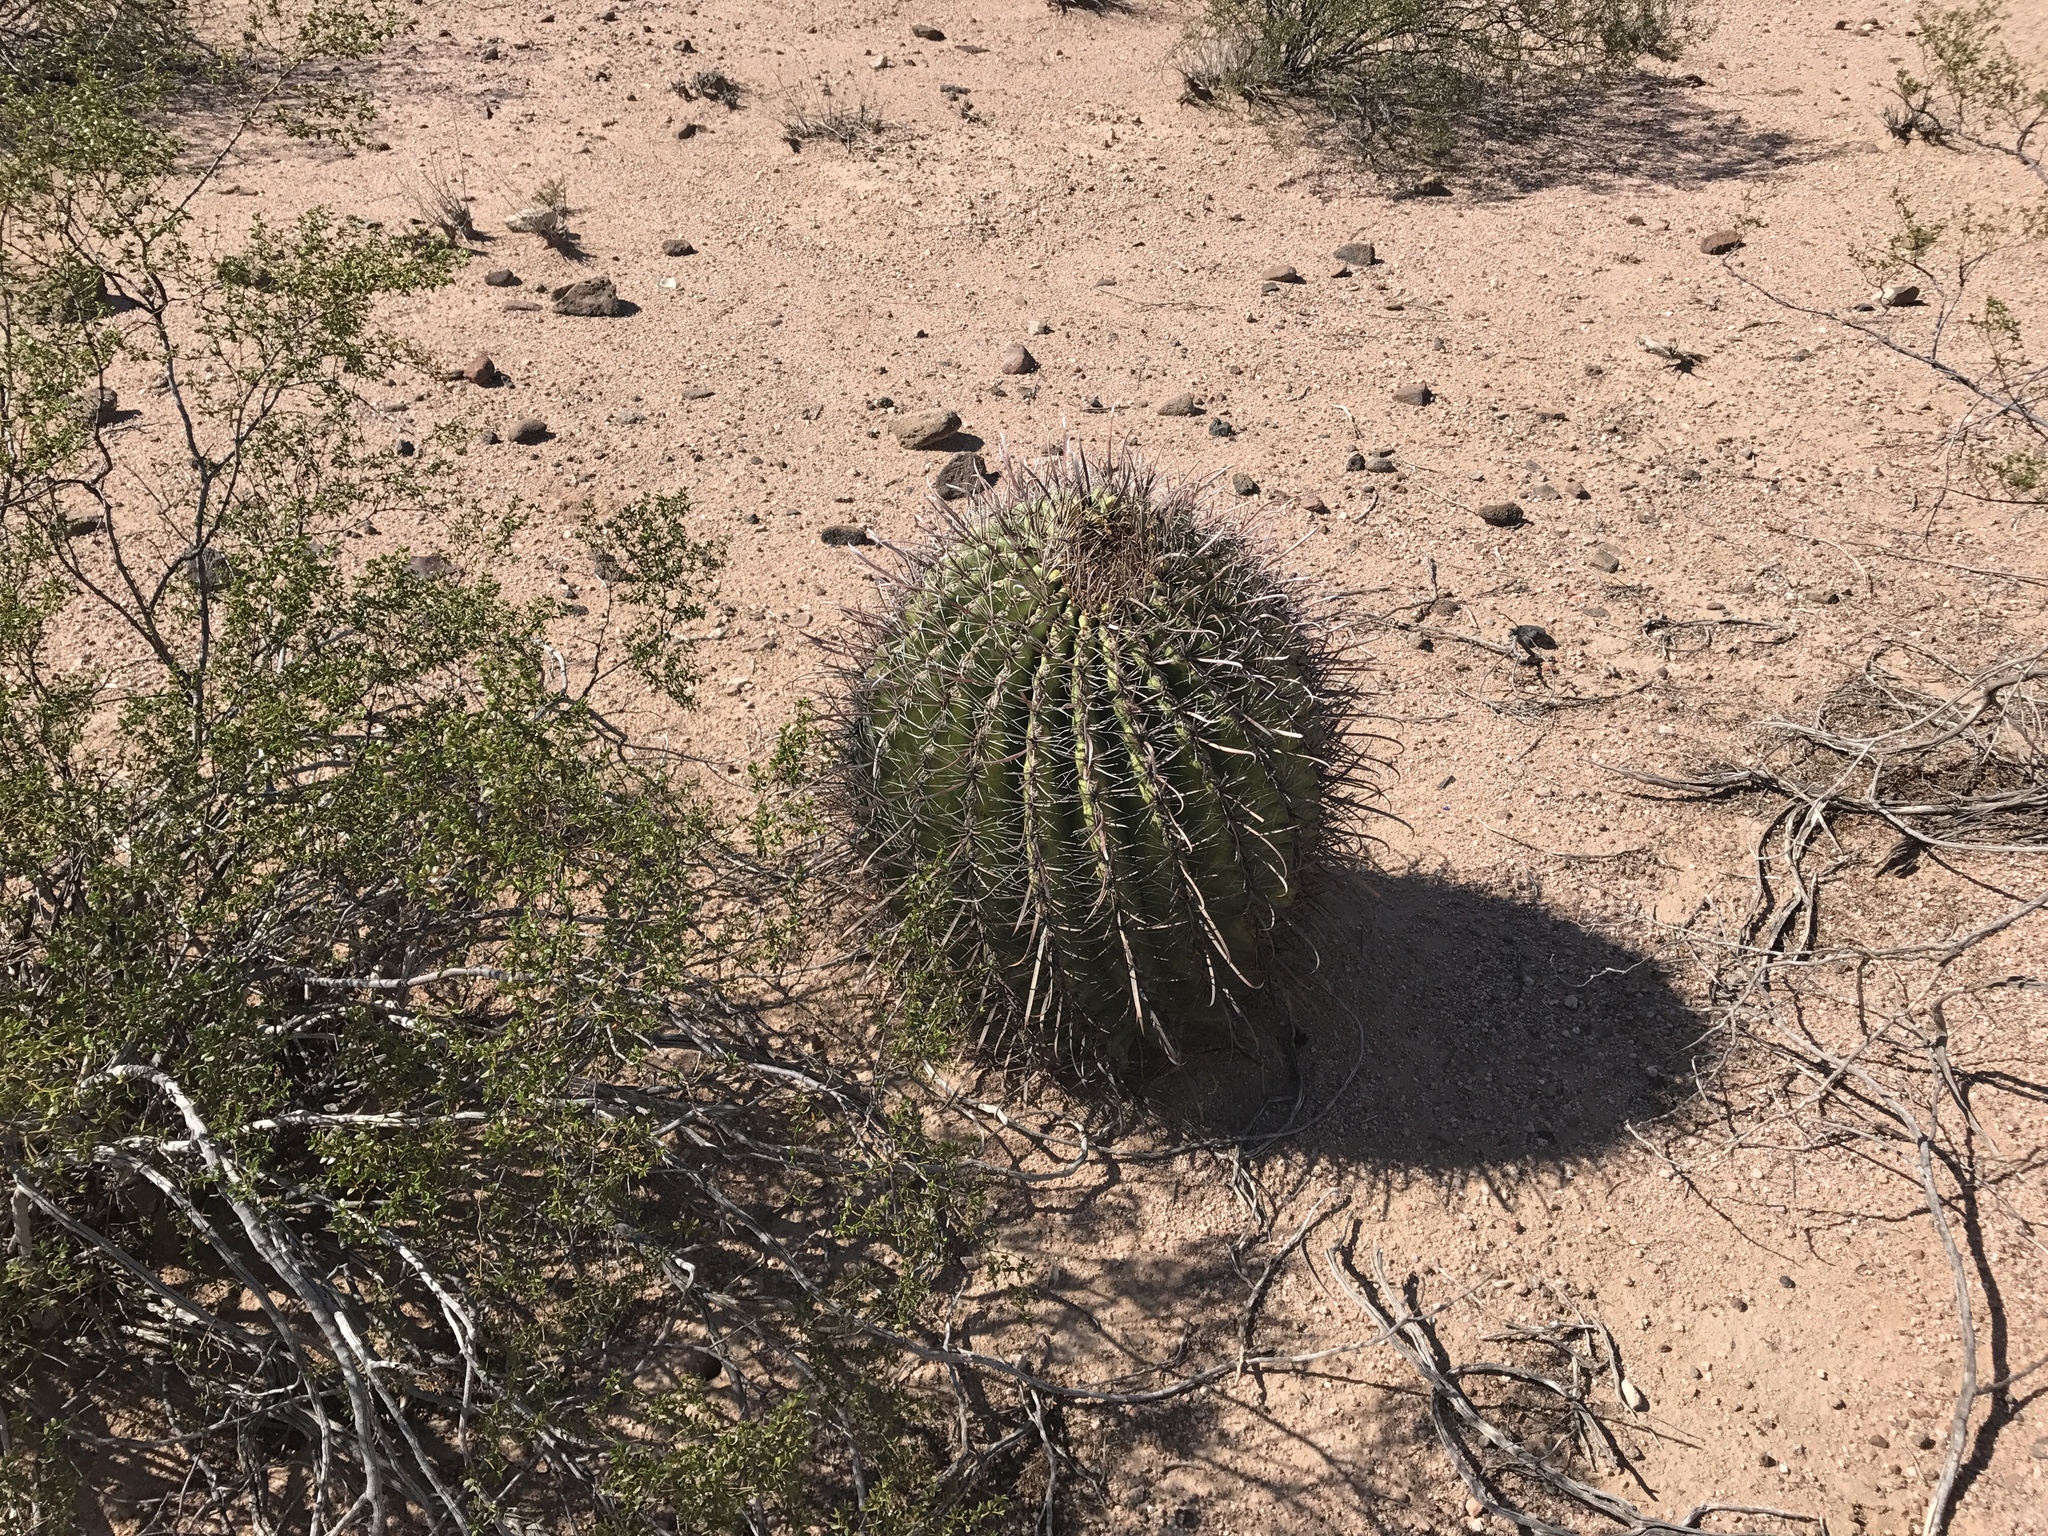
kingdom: Plantae
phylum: Tracheophyta
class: Magnoliopsida
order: Caryophyllales
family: Cactaceae
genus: Ferocactus
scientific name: Ferocactus wislizeni
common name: Candy barrel cactus
